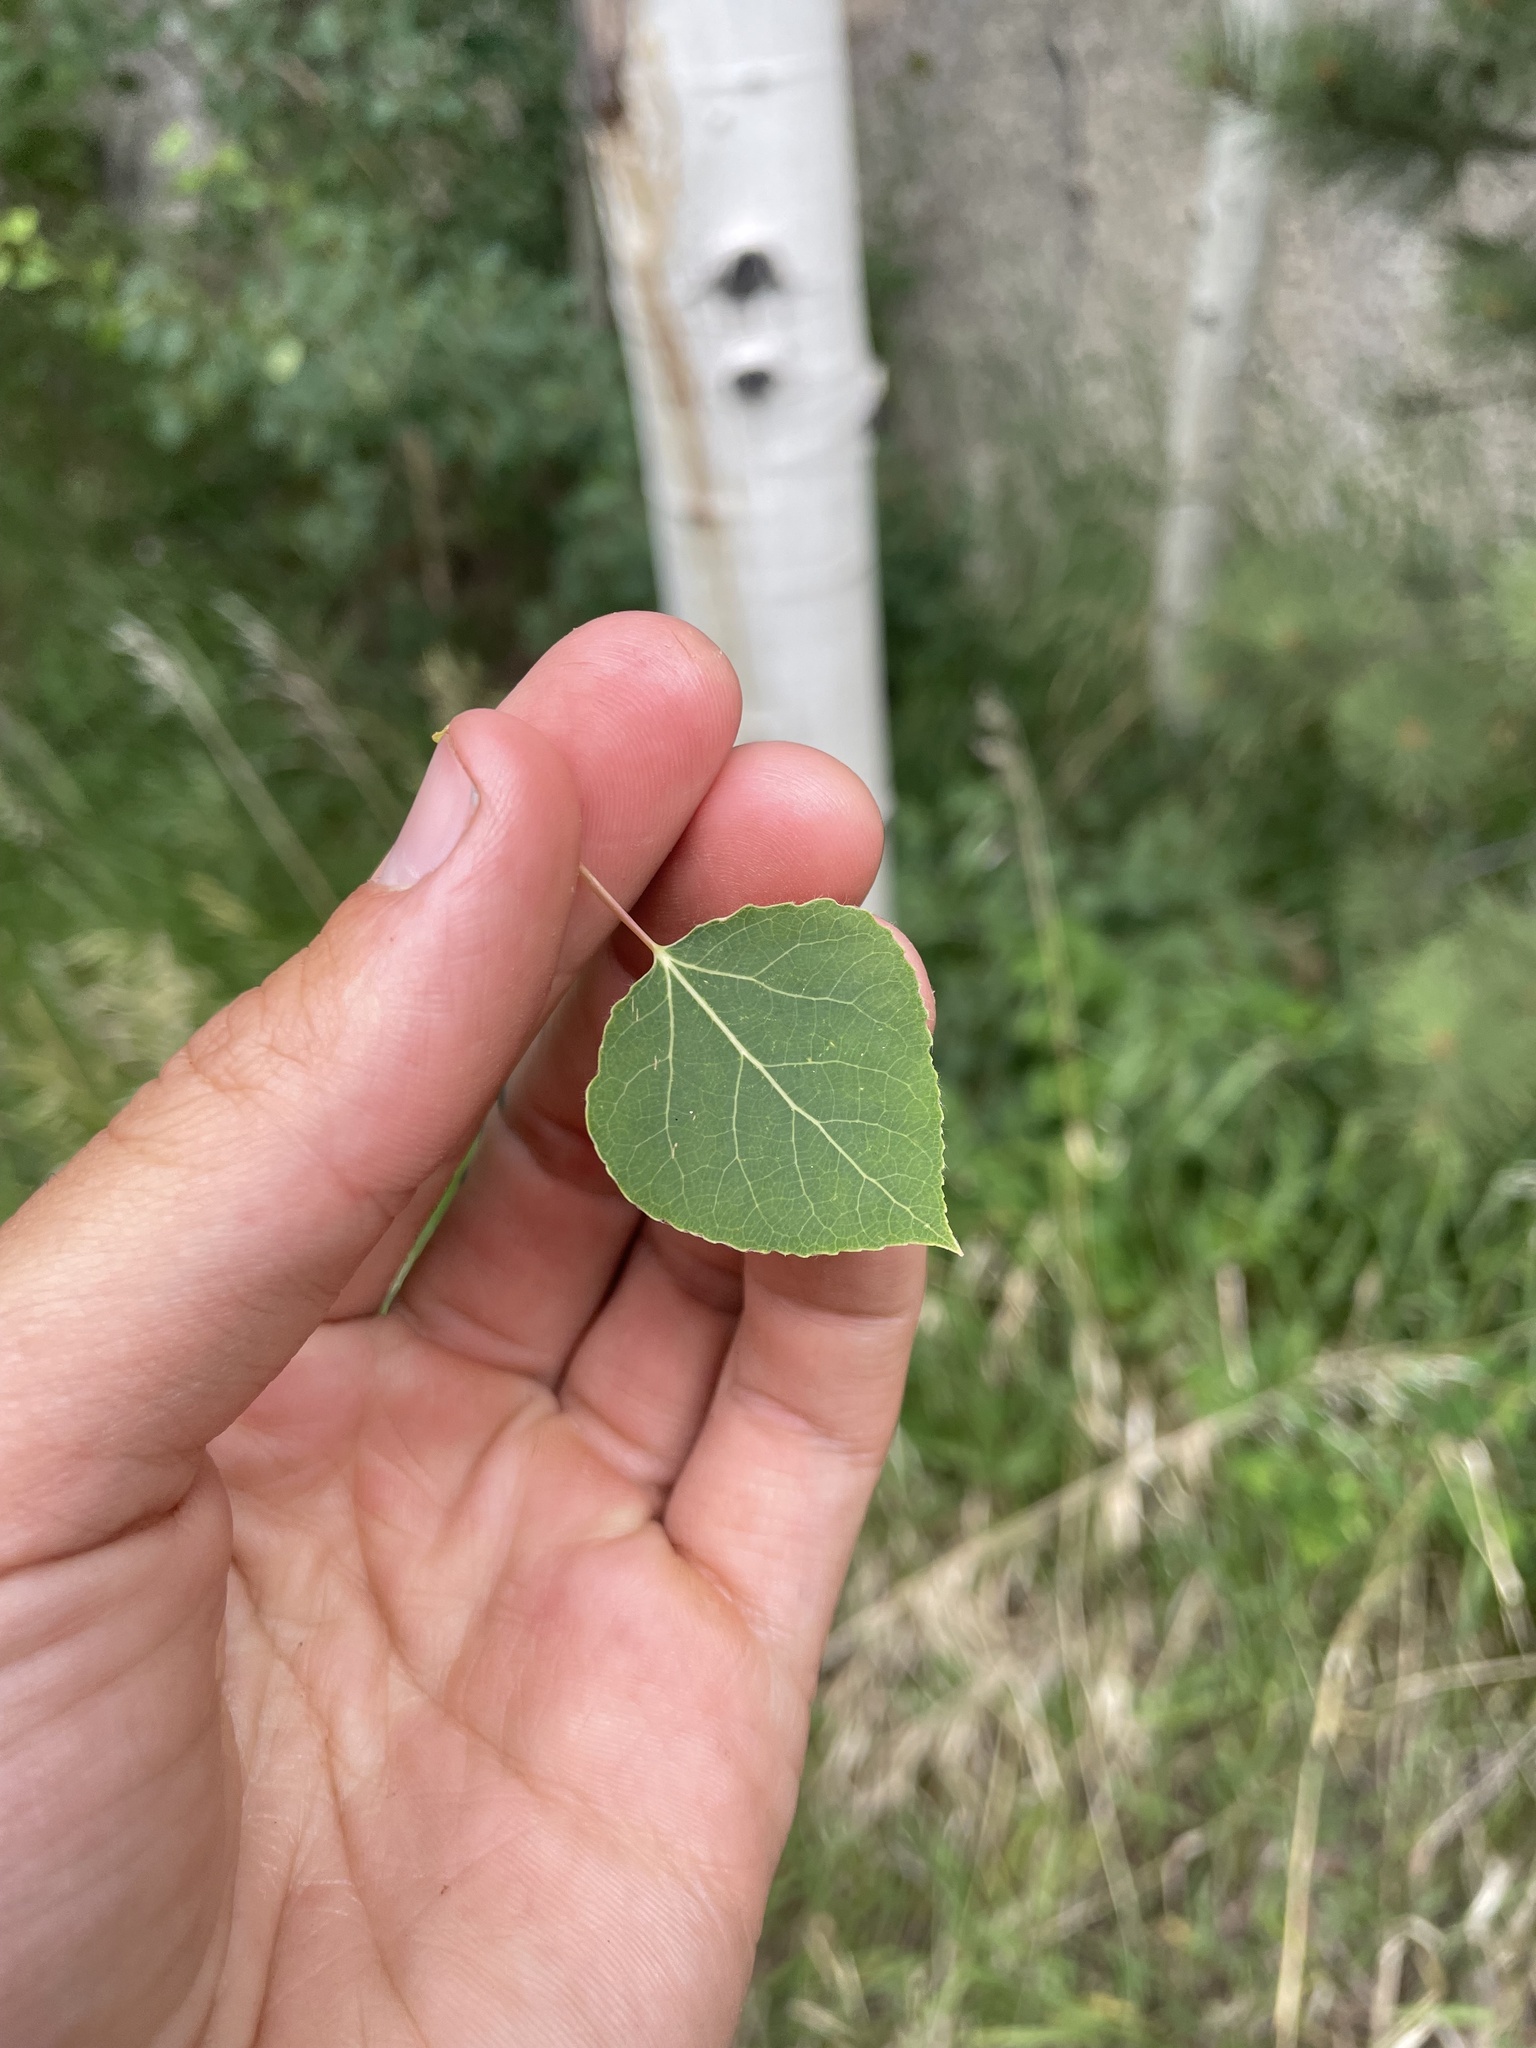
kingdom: Plantae
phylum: Tracheophyta
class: Magnoliopsida
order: Malpighiales
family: Salicaceae
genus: Populus
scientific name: Populus tremuloides
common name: Quaking aspen
